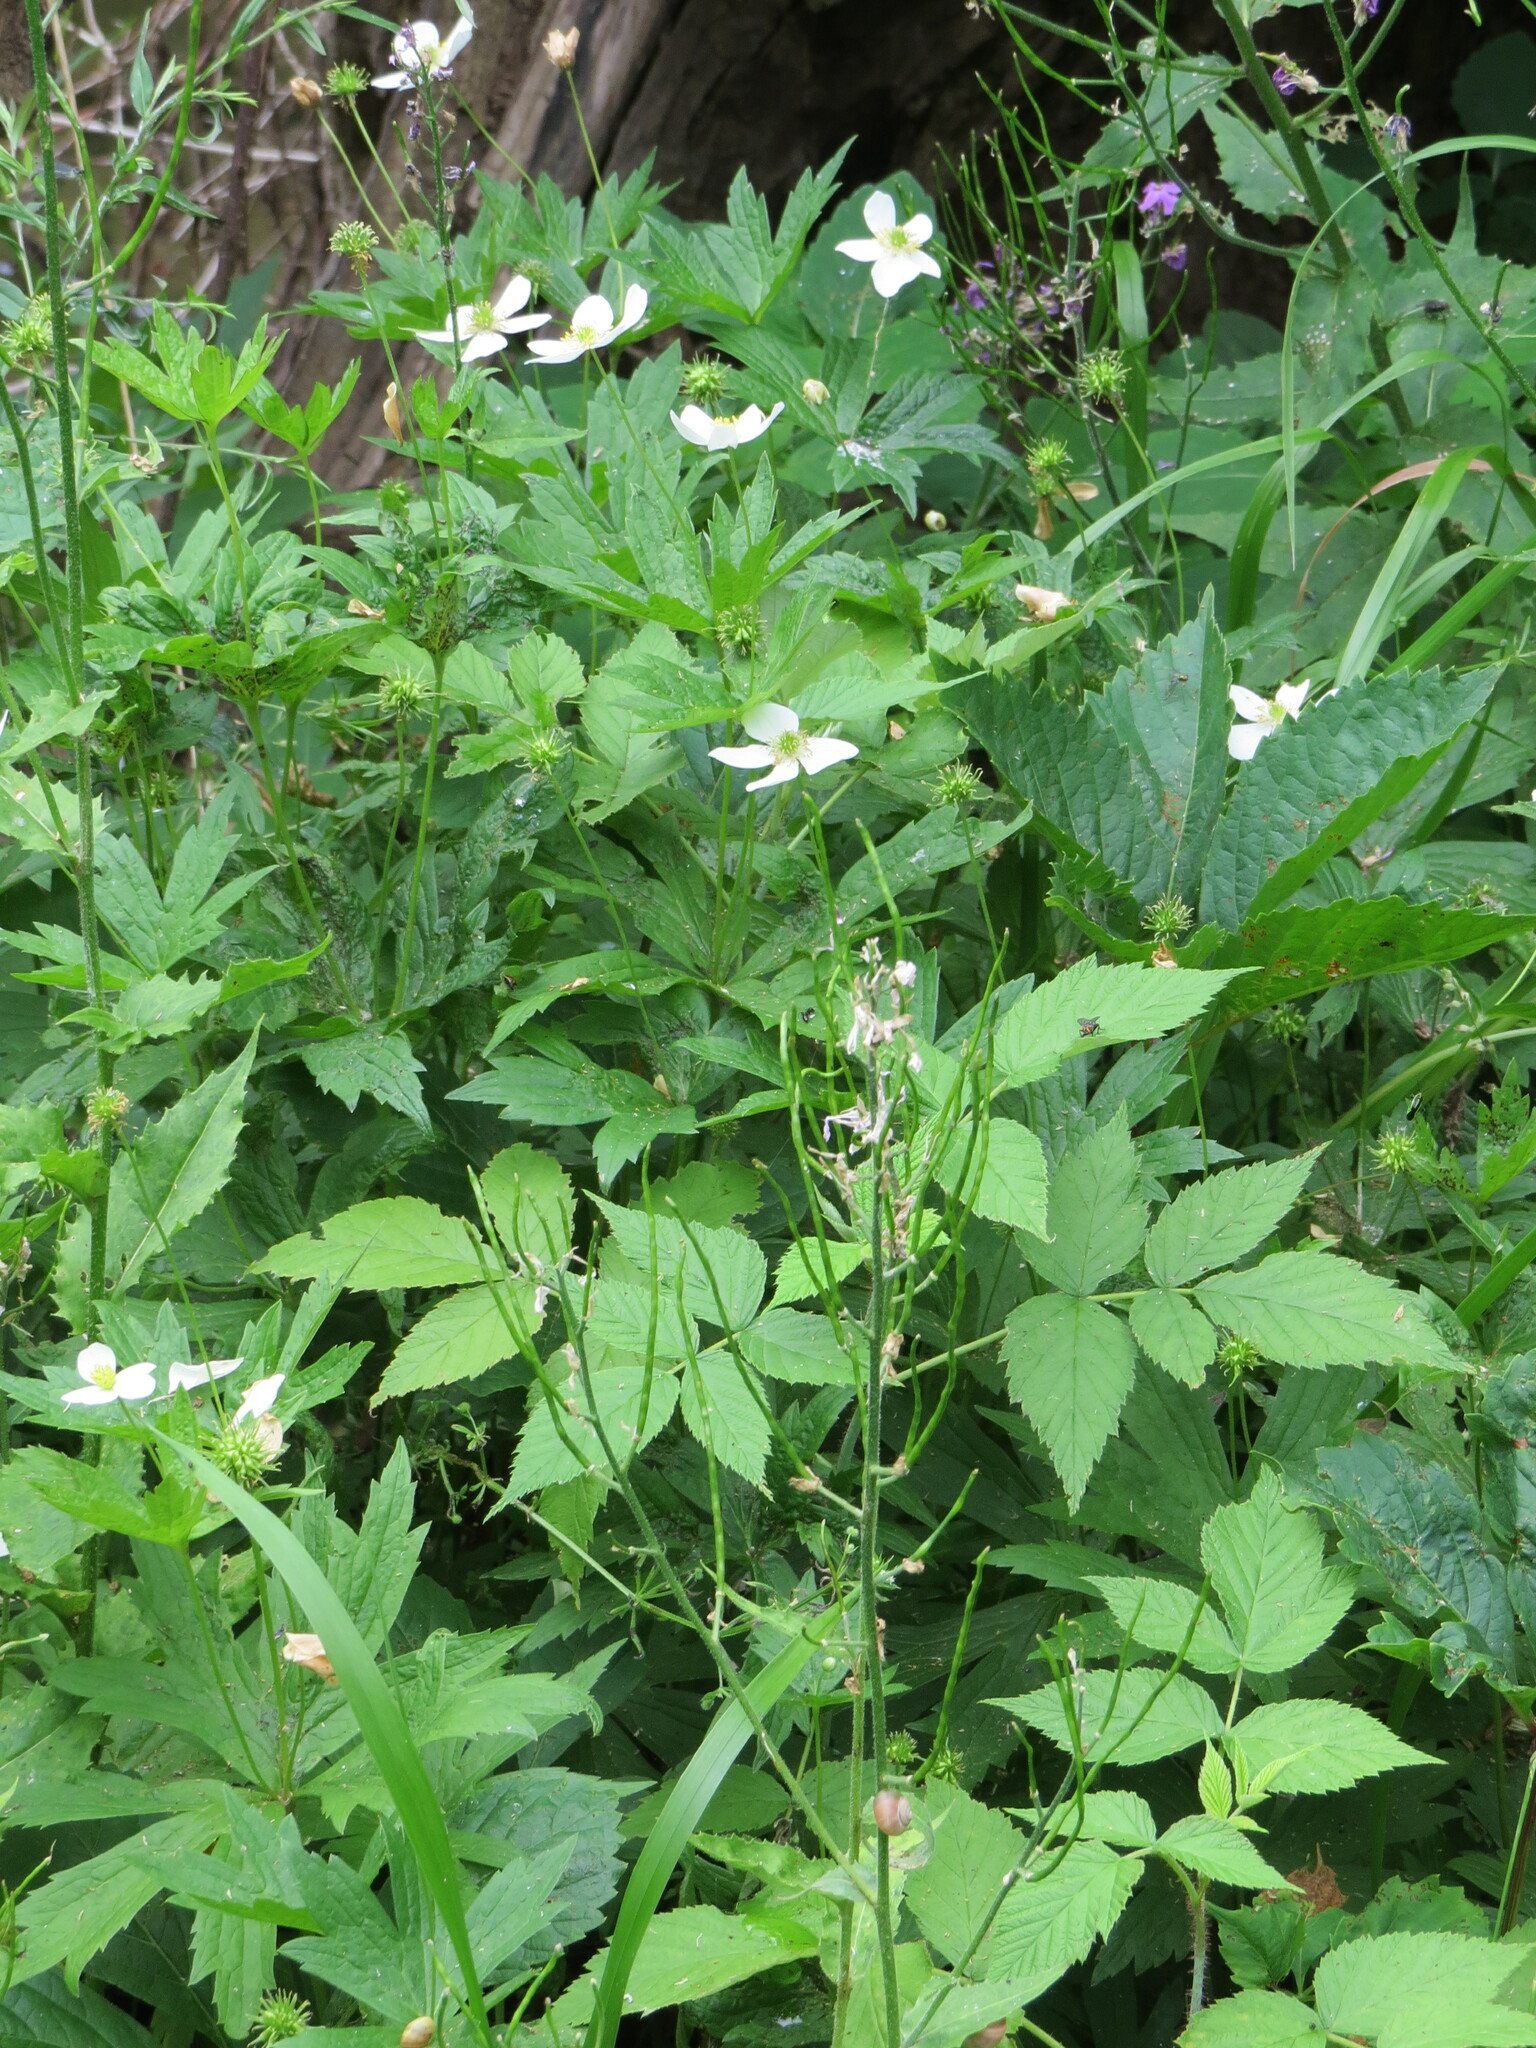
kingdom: Plantae
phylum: Tracheophyta
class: Magnoliopsida
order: Ranunculales
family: Ranunculaceae
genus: Anemonastrum
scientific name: Anemonastrum canadense
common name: Canada anemone
